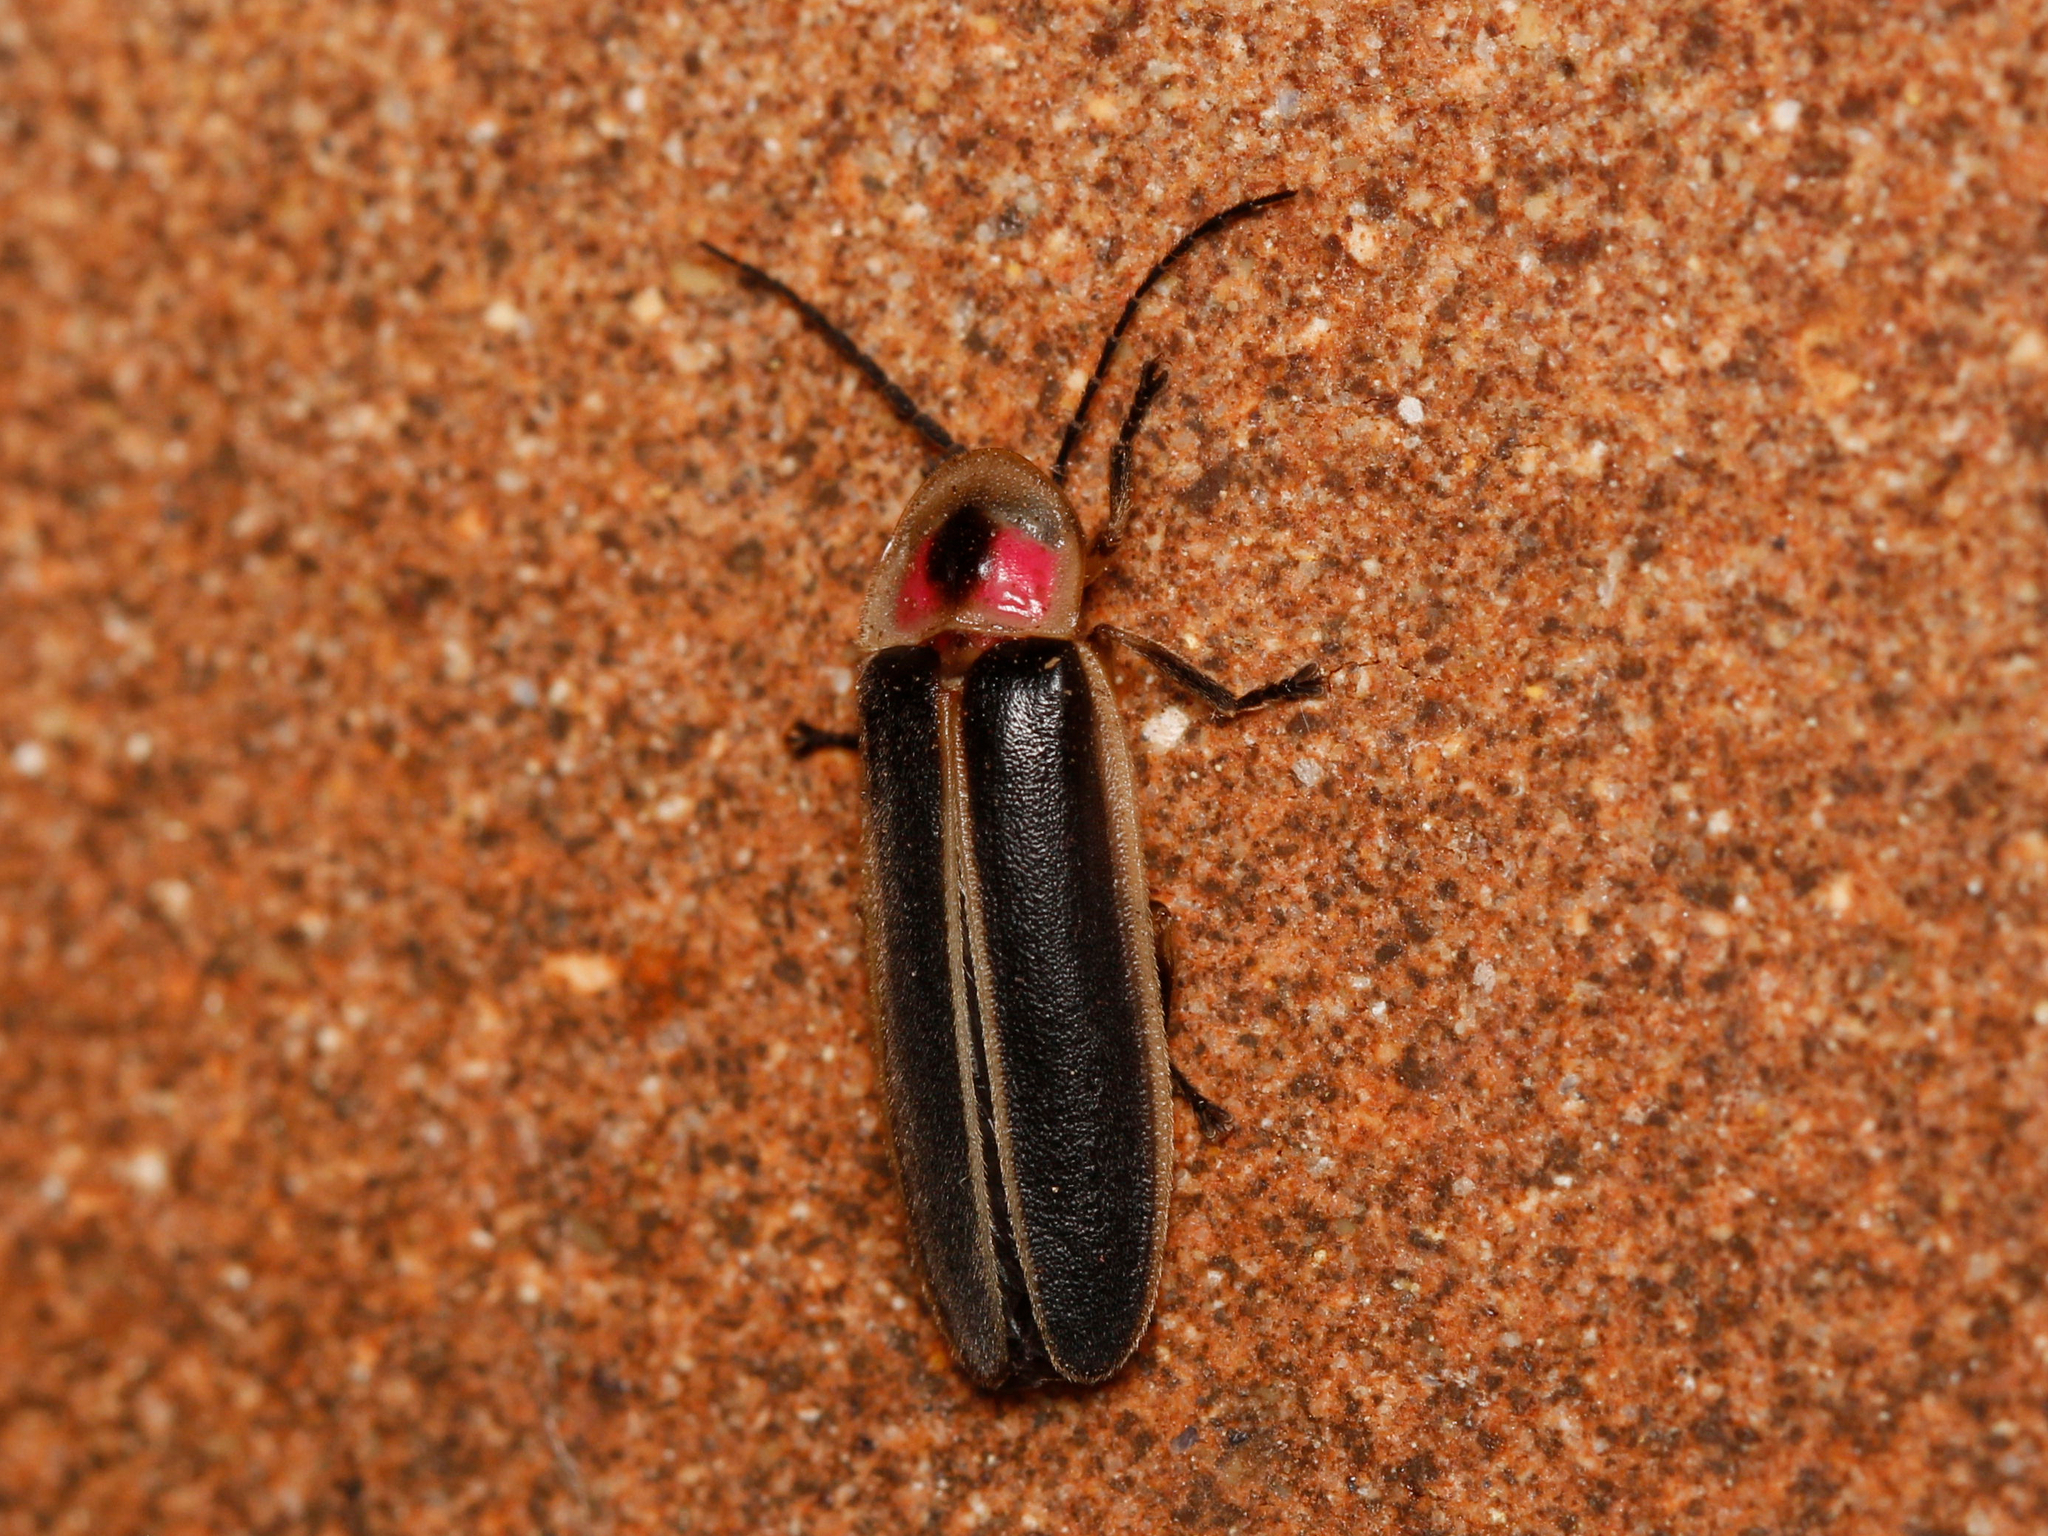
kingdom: Animalia
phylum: Arthropoda
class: Insecta
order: Coleoptera
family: Lampyridae
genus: Photinus
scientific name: Photinus pyralis
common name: Big dipper firefly
